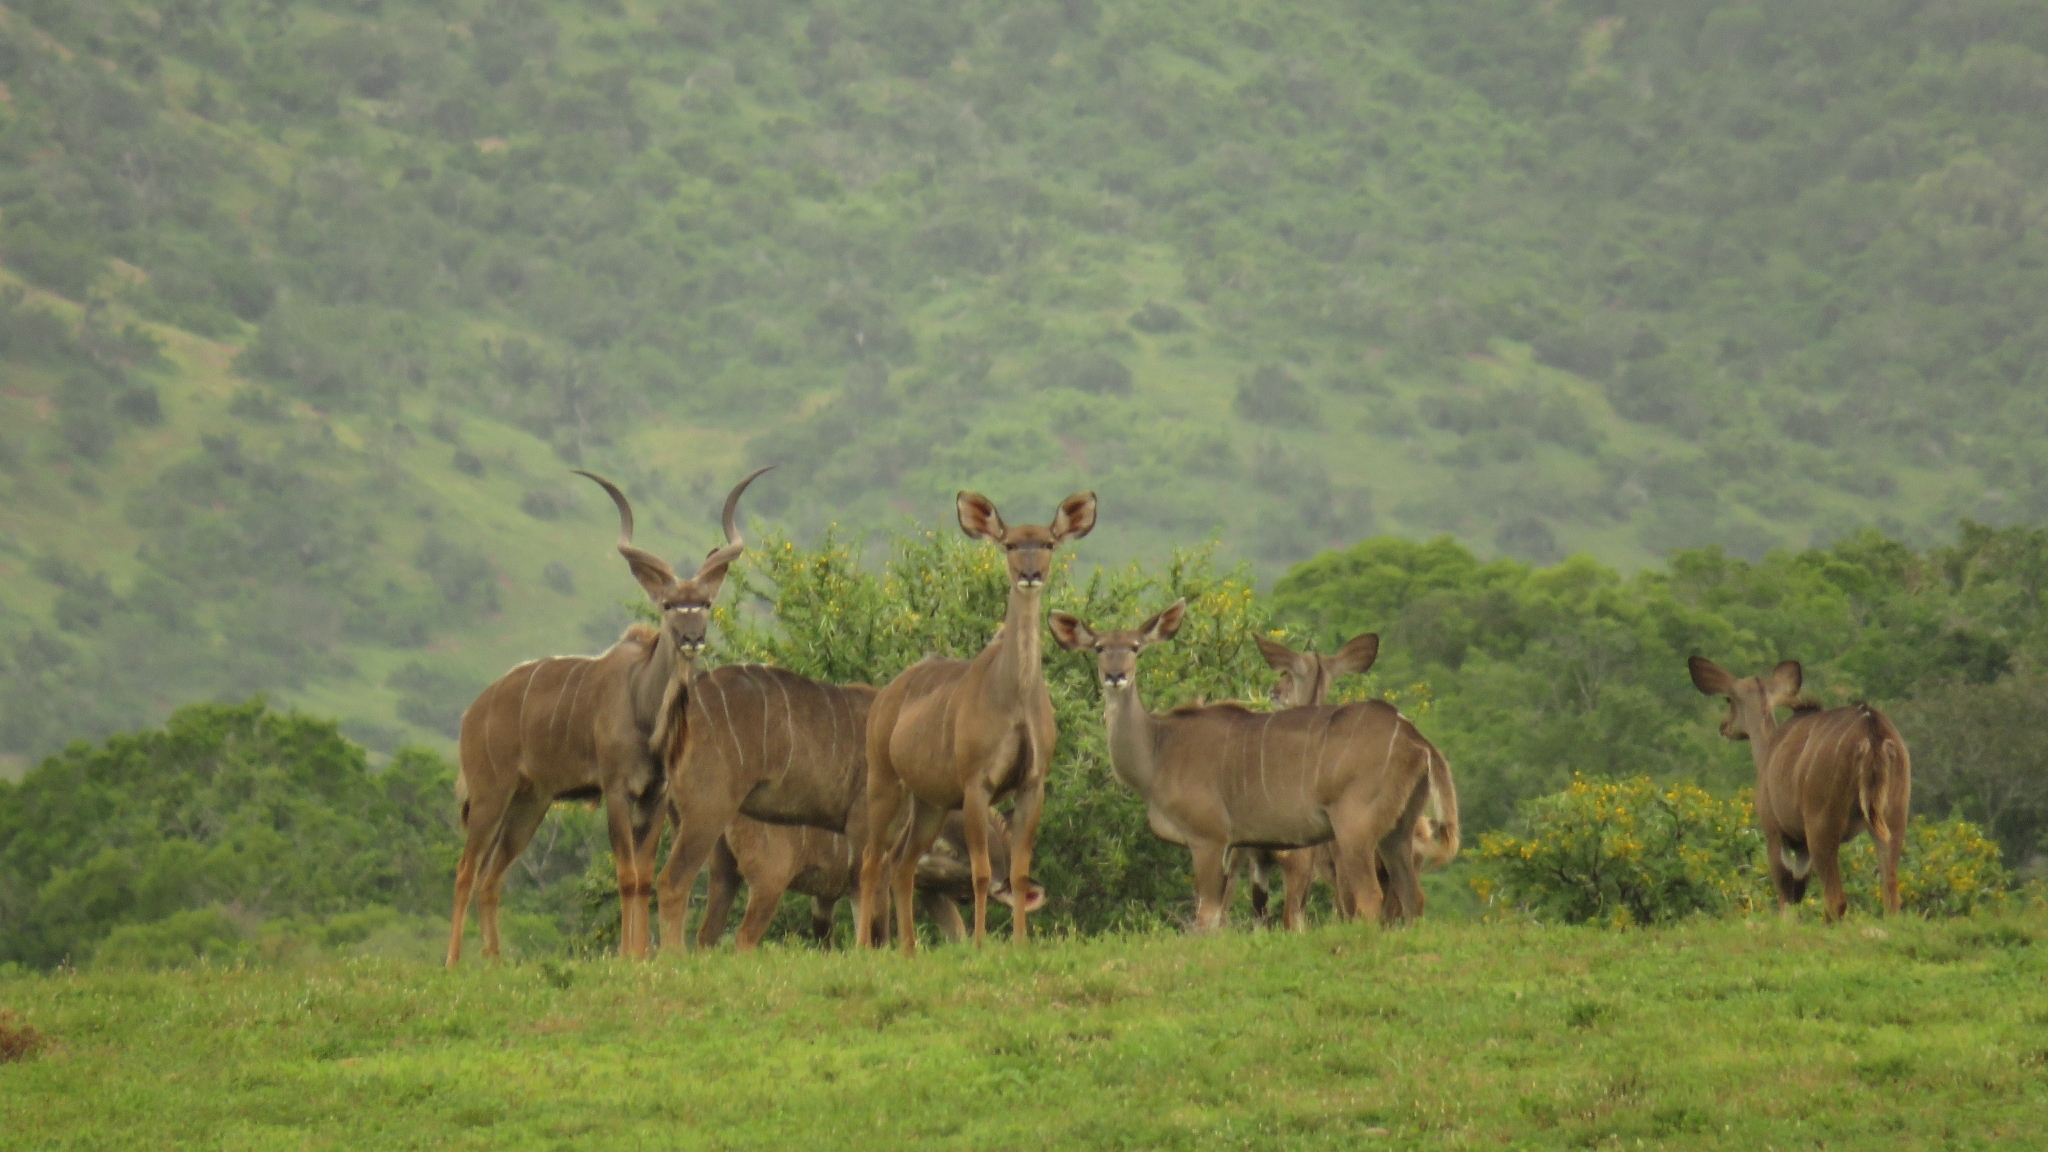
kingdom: Animalia
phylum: Chordata
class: Mammalia
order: Artiodactyla
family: Bovidae
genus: Tragelaphus
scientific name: Tragelaphus strepsiceros
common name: Greater kudu
